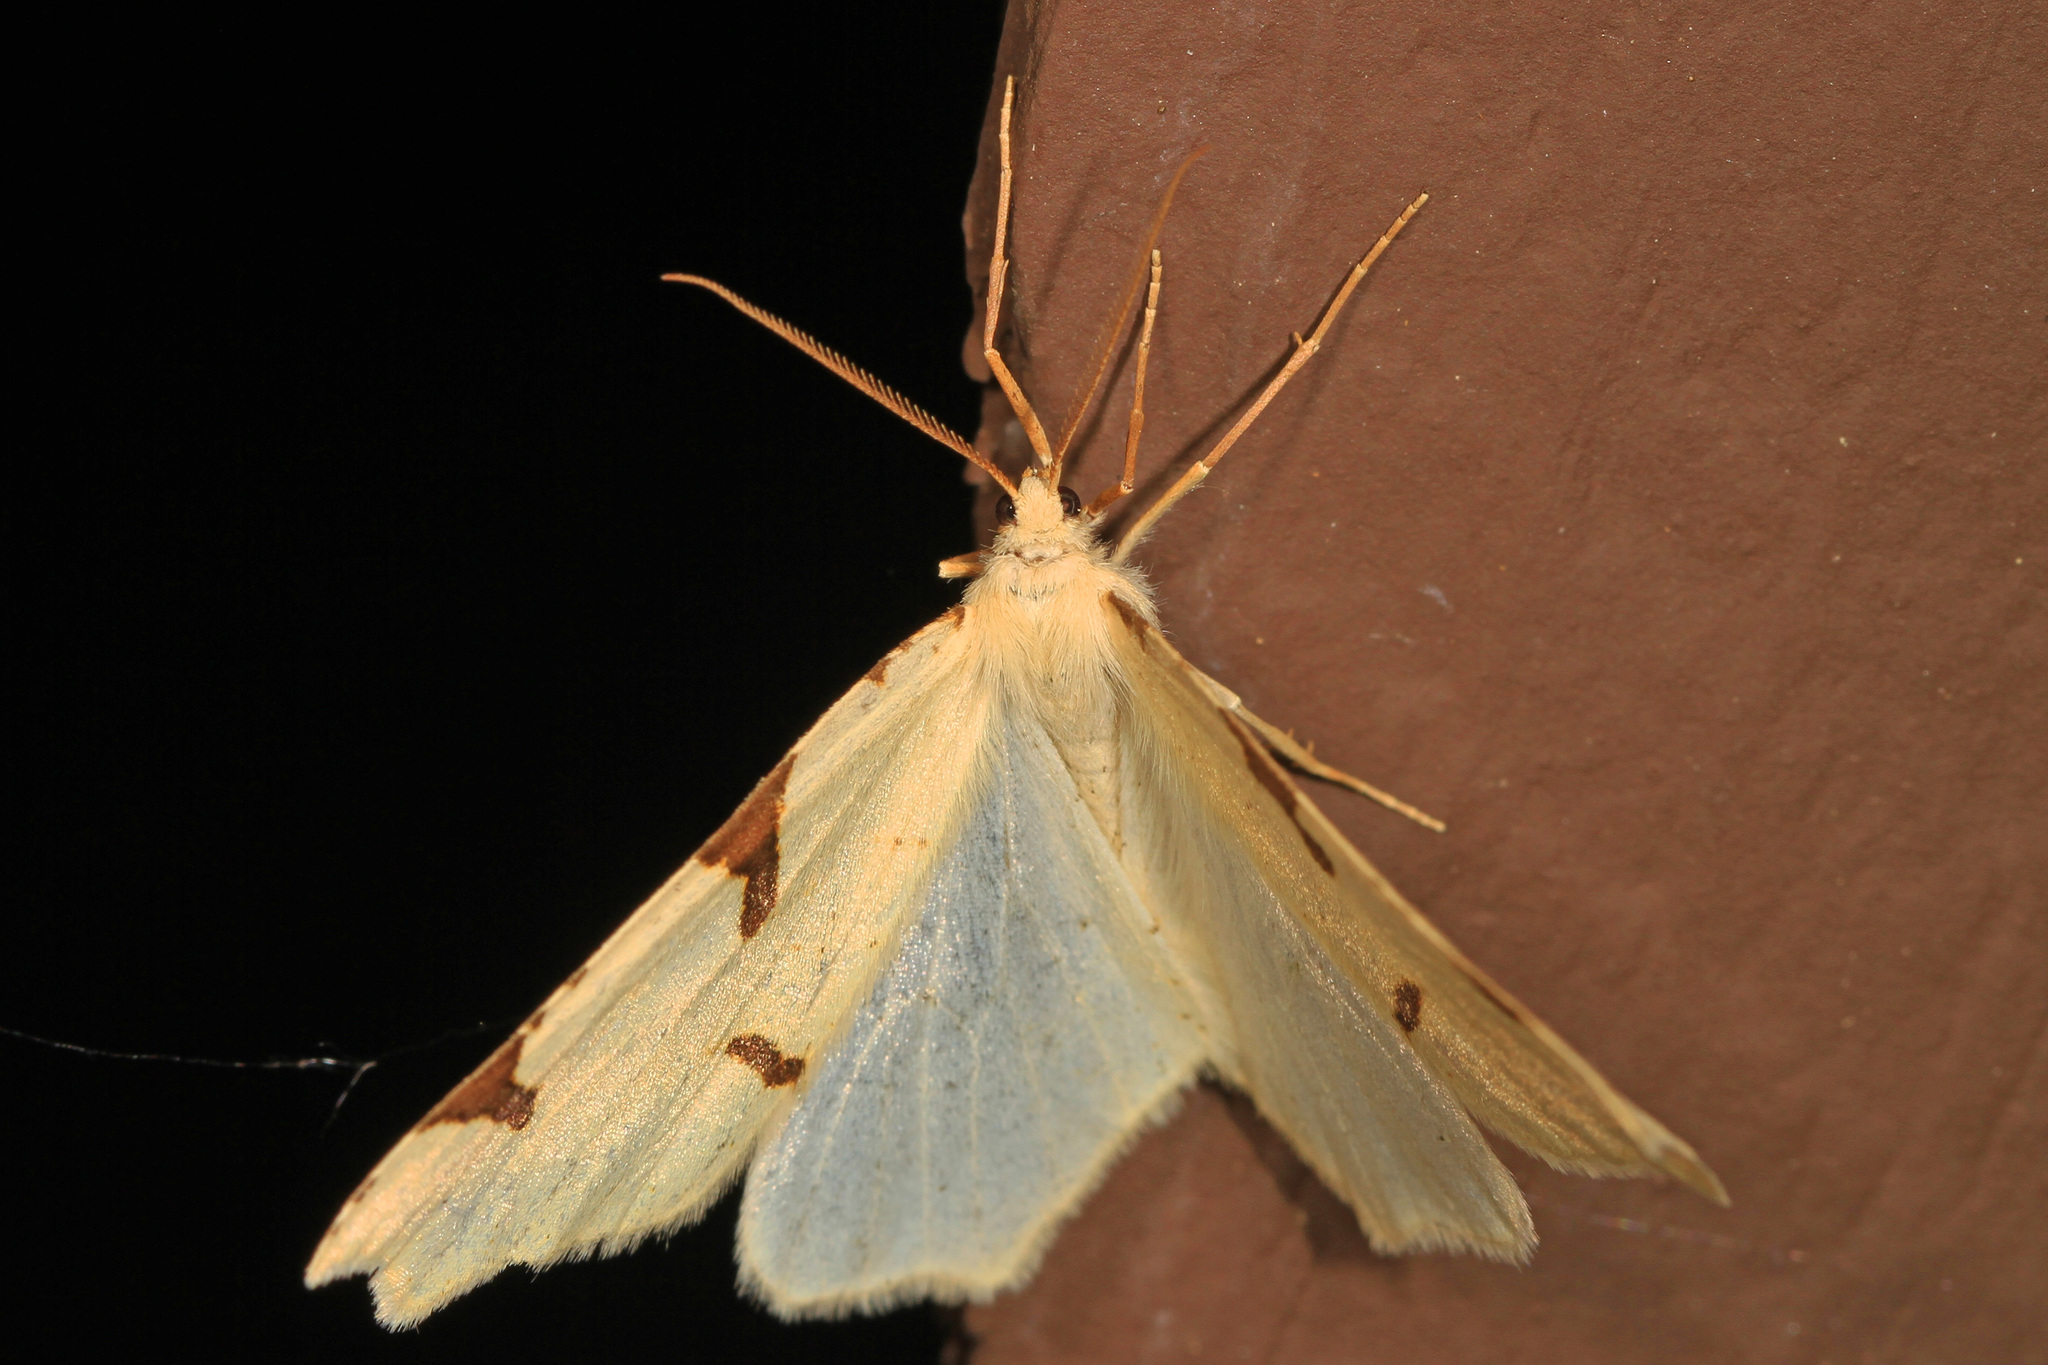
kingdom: Animalia
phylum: Arthropoda
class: Insecta
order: Lepidoptera
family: Geometridae
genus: Neoterpes
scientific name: Neoterpes trianguliferata
